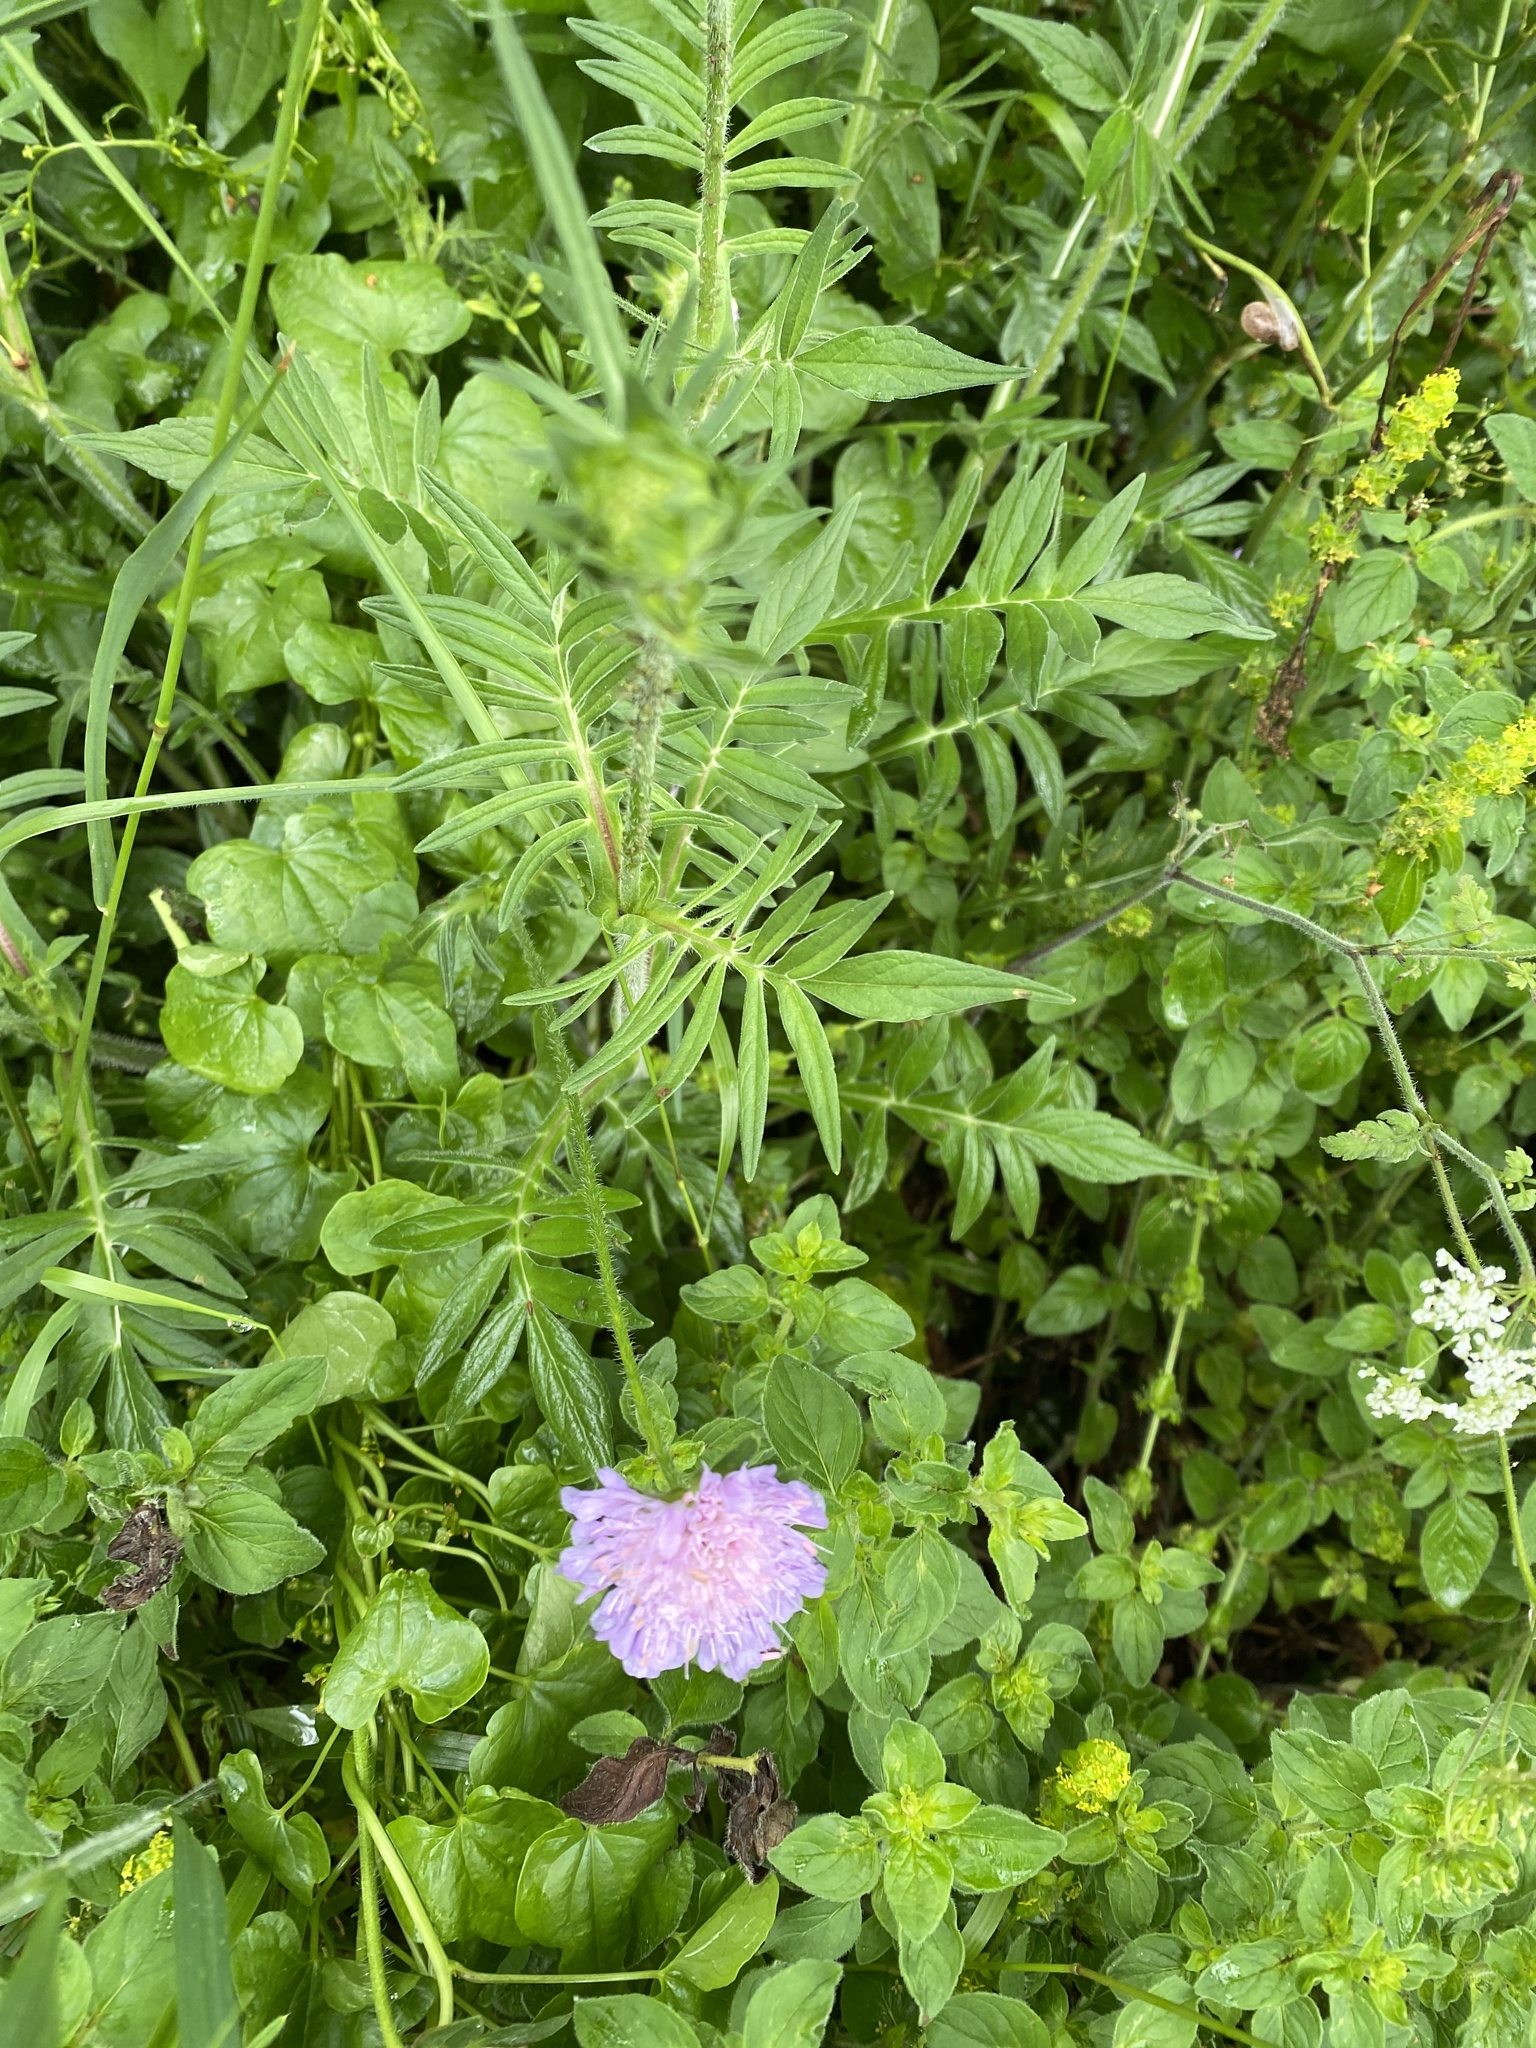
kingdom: Plantae
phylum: Tracheophyta
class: Magnoliopsida
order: Dipsacales
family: Caprifoliaceae
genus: Knautia
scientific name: Knautia arvensis
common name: Field scabiosa
